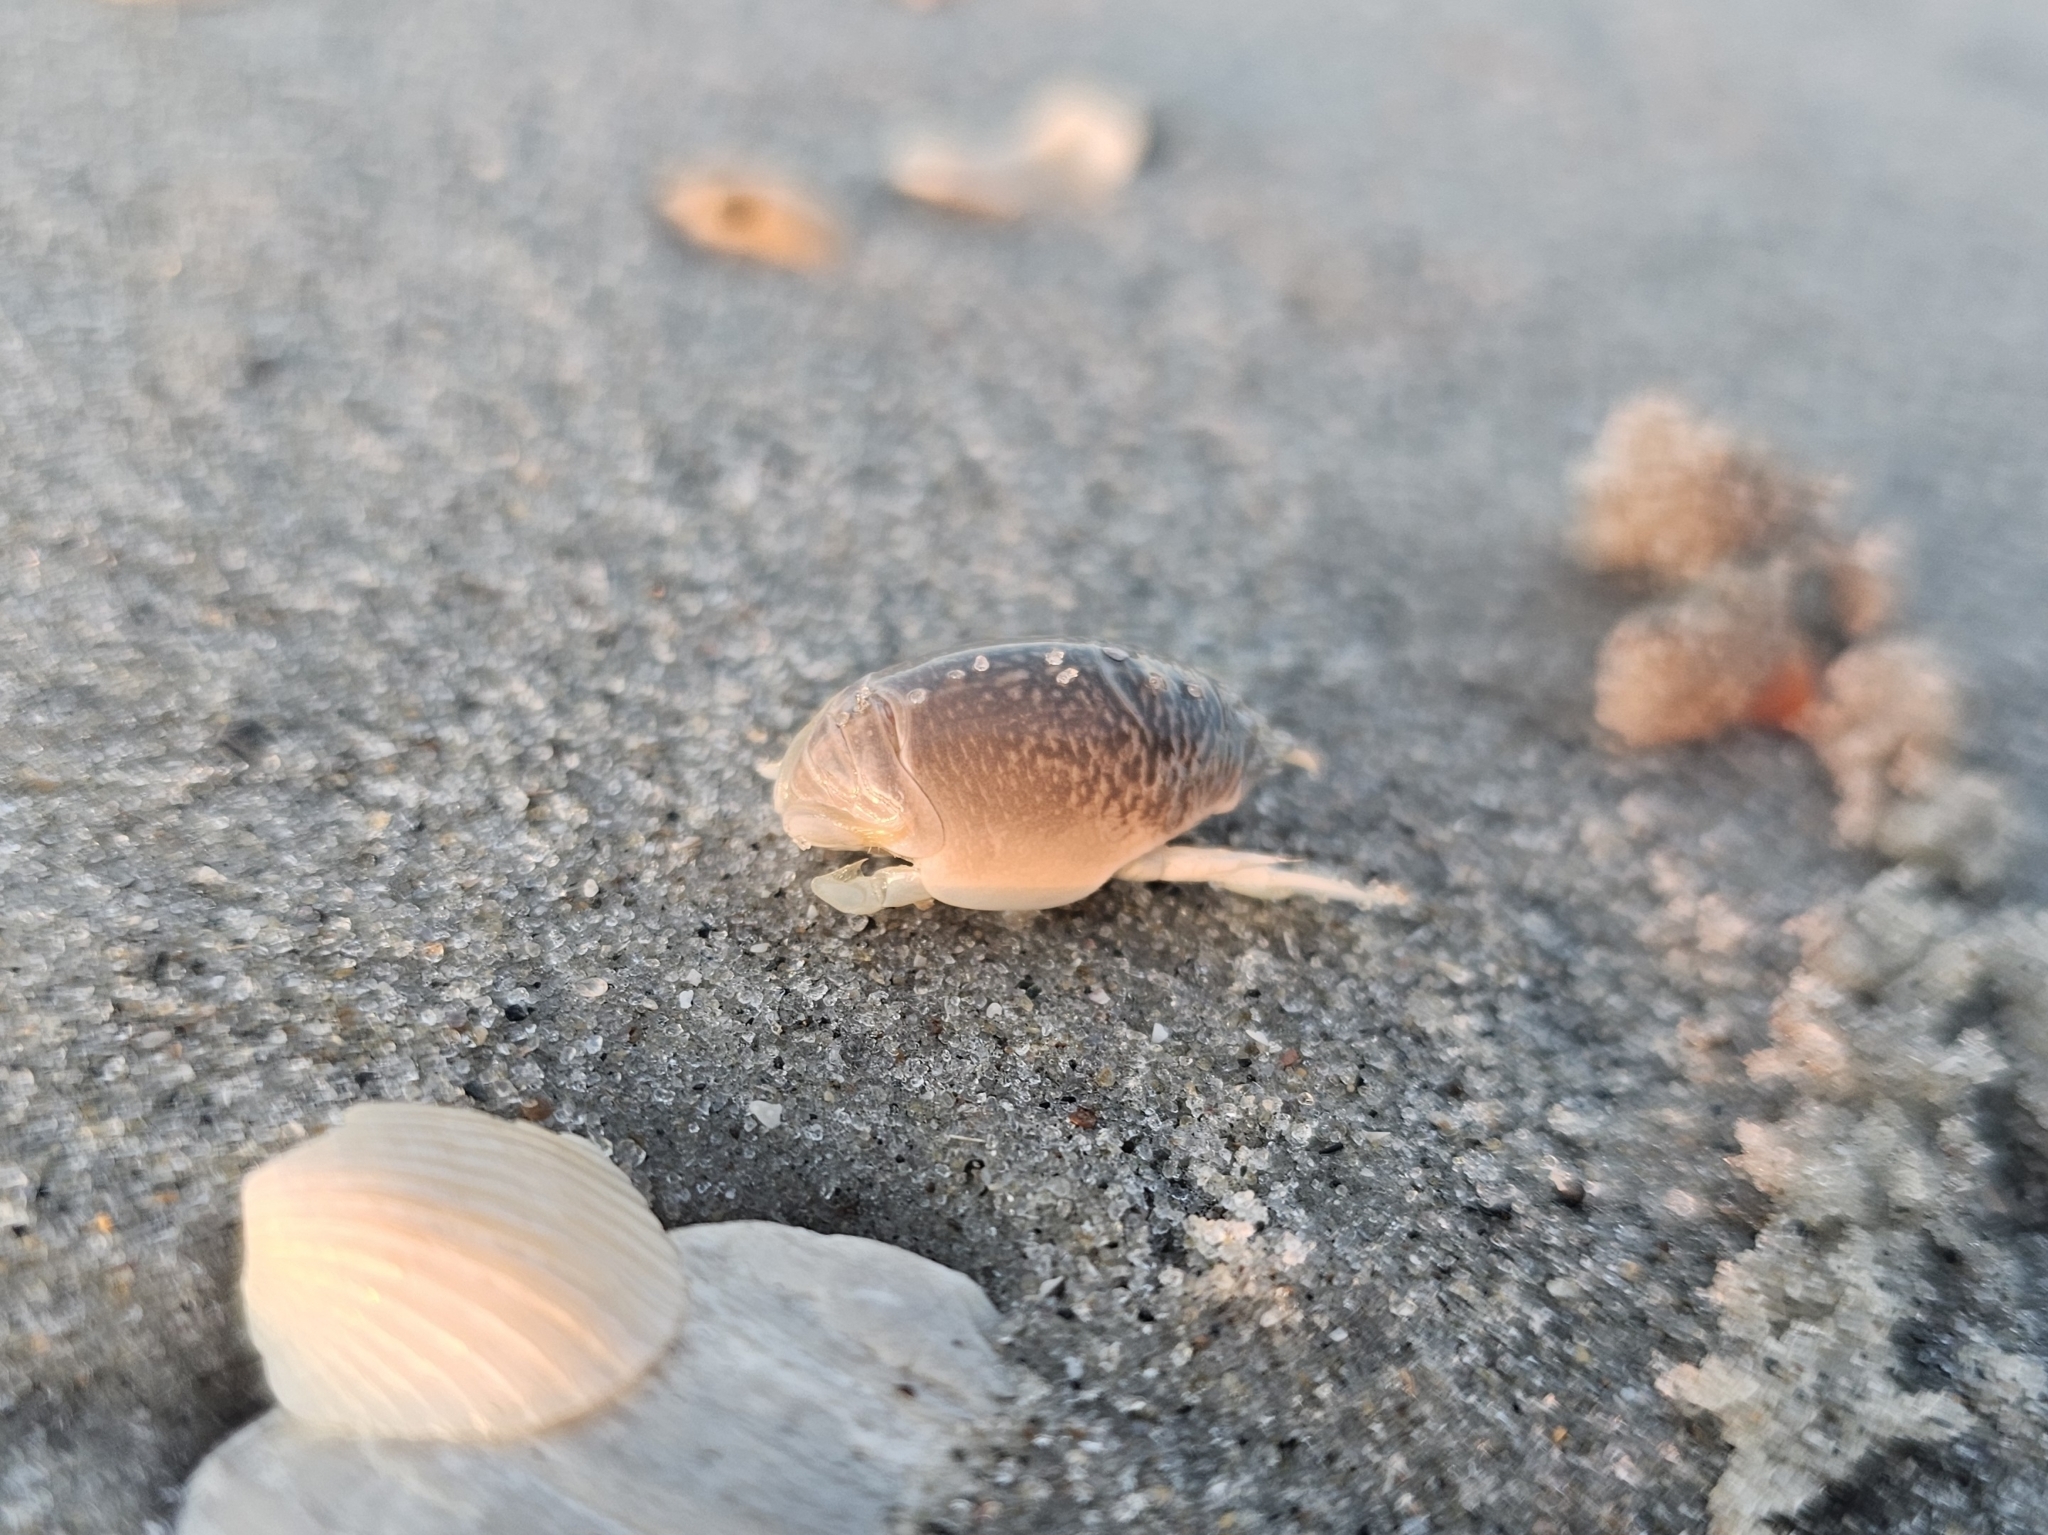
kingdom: Animalia
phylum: Arthropoda
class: Malacostraca
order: Decapoda
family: Hippidae
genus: Emerita
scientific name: Emerita talpoida
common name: Atlantic sand crab
